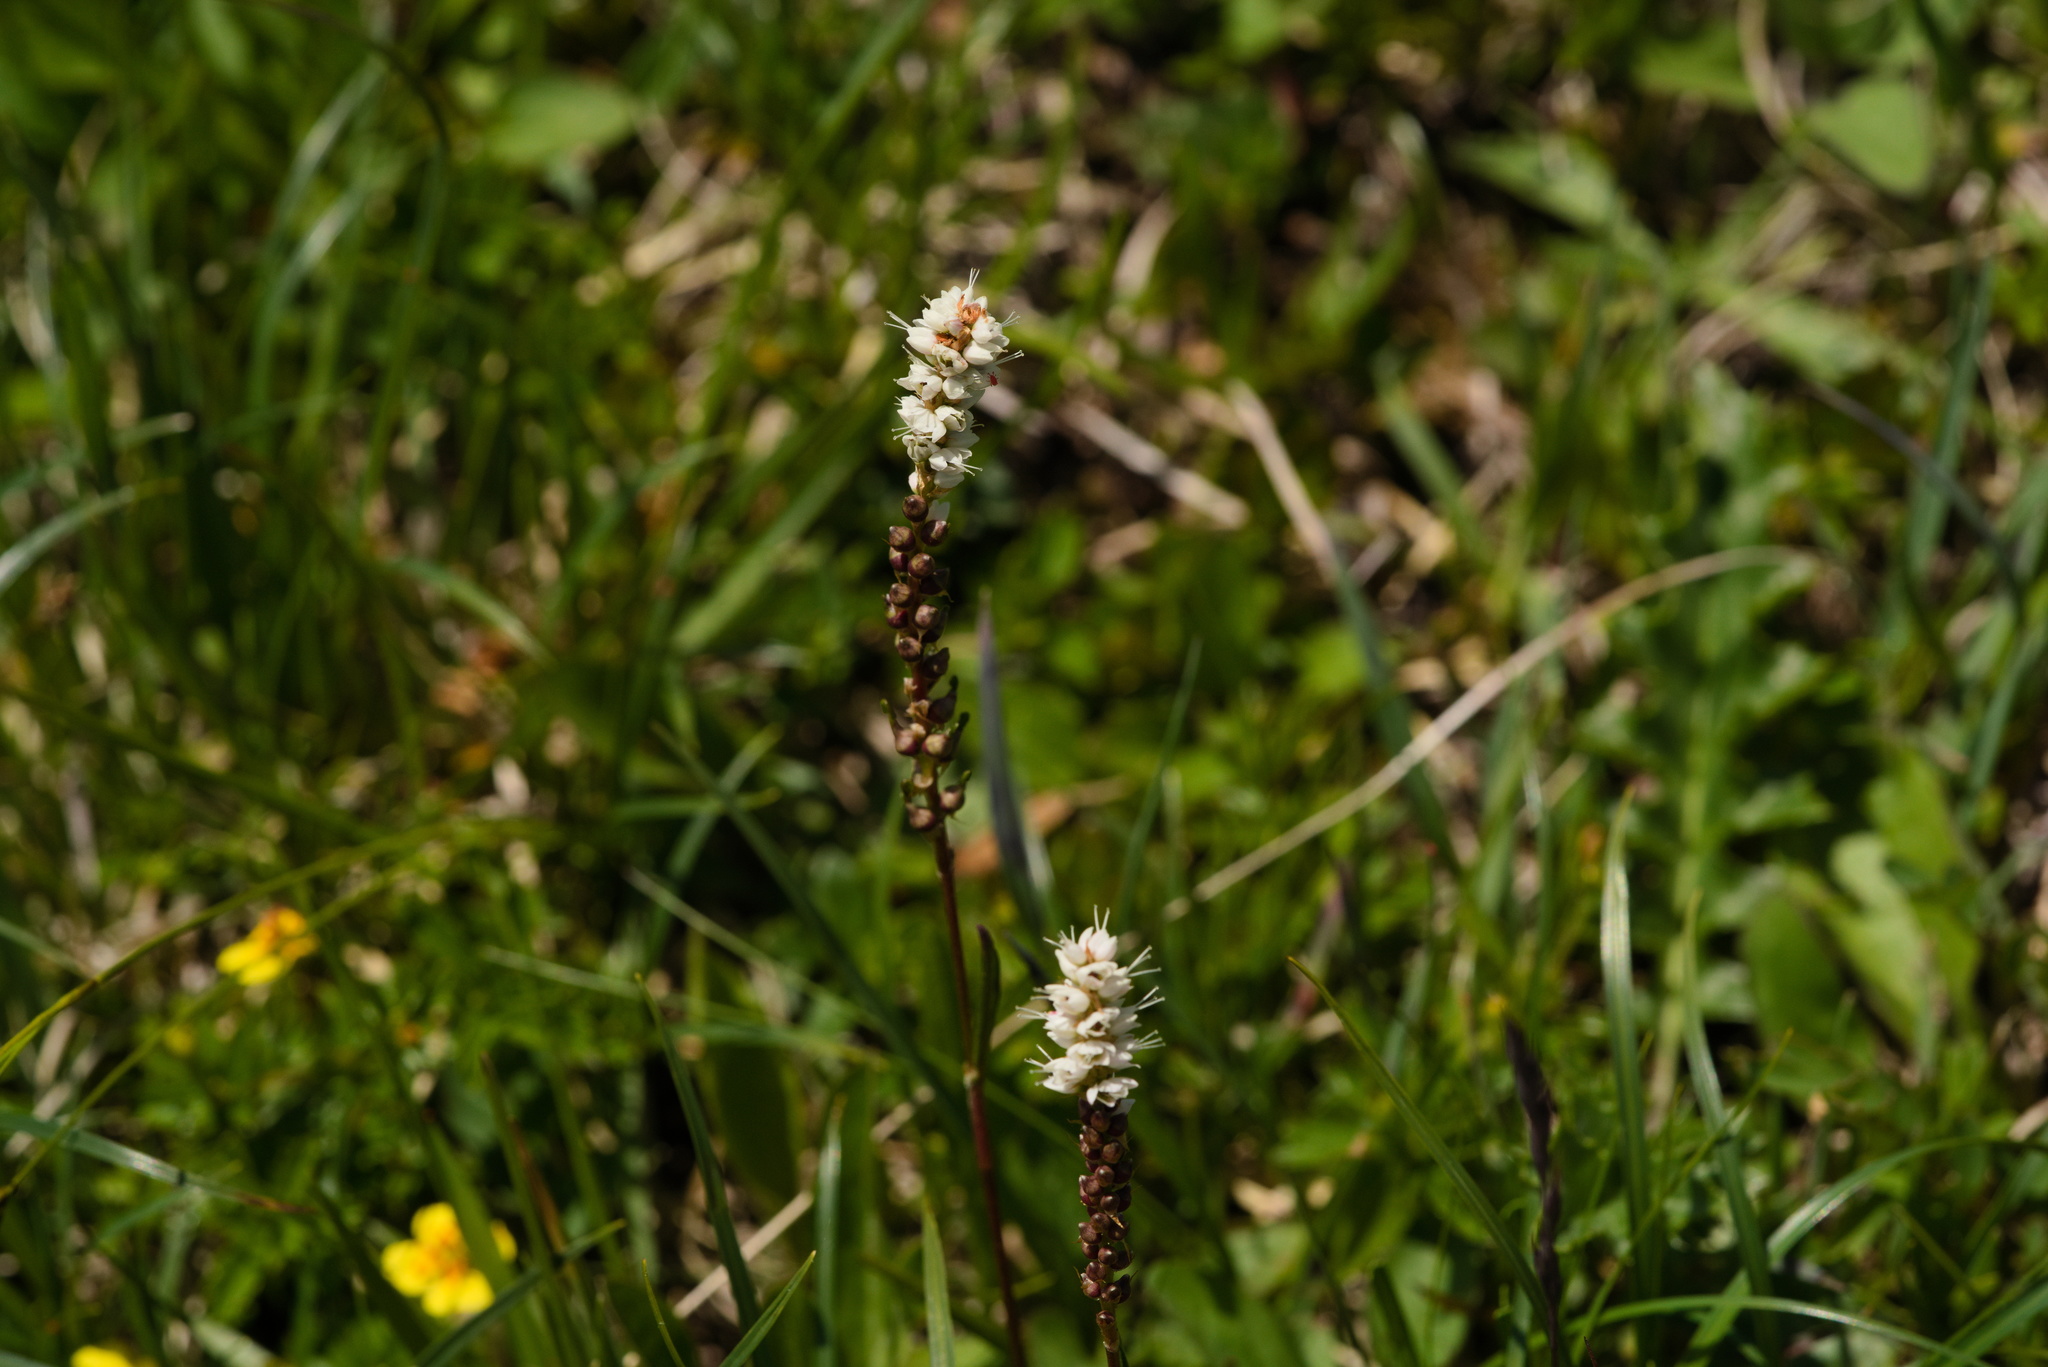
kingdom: Plantae
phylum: Tracheophyta
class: Magnoliopsida
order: Caryophyllales
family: Polygonaceae
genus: Bistorta
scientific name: Bistorta vivipara
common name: Alpine bistort
